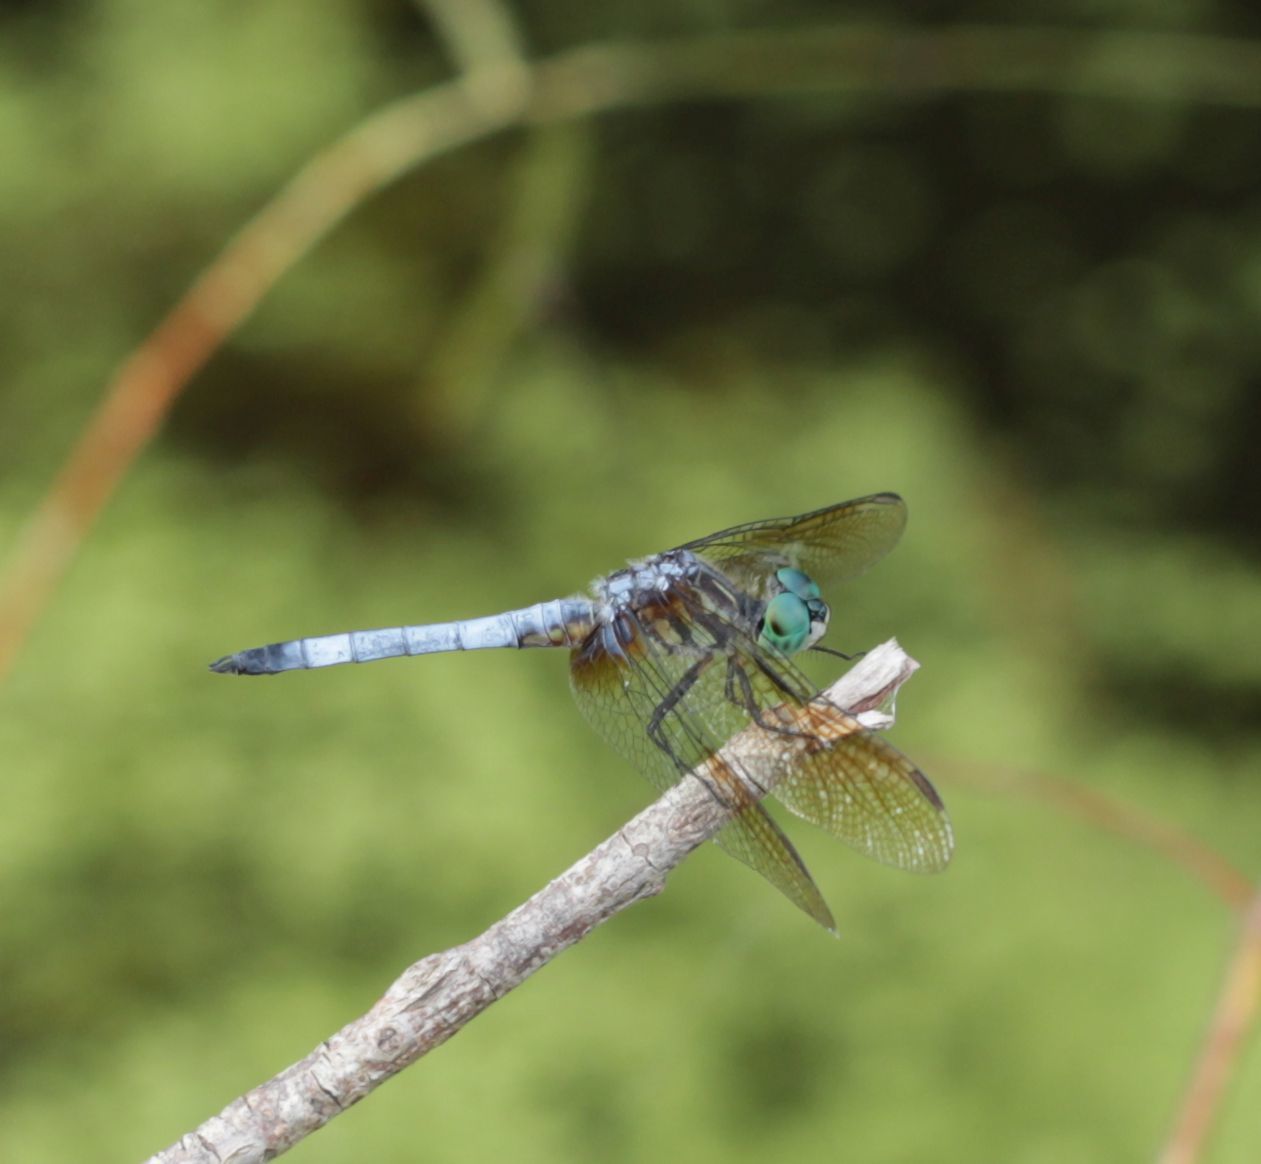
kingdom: Animalia
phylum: Arthropoda
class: Insecta
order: Odonata
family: Libellulidae
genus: Pachydiplax
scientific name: Pachydiplax longipennis
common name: Blue dasher
